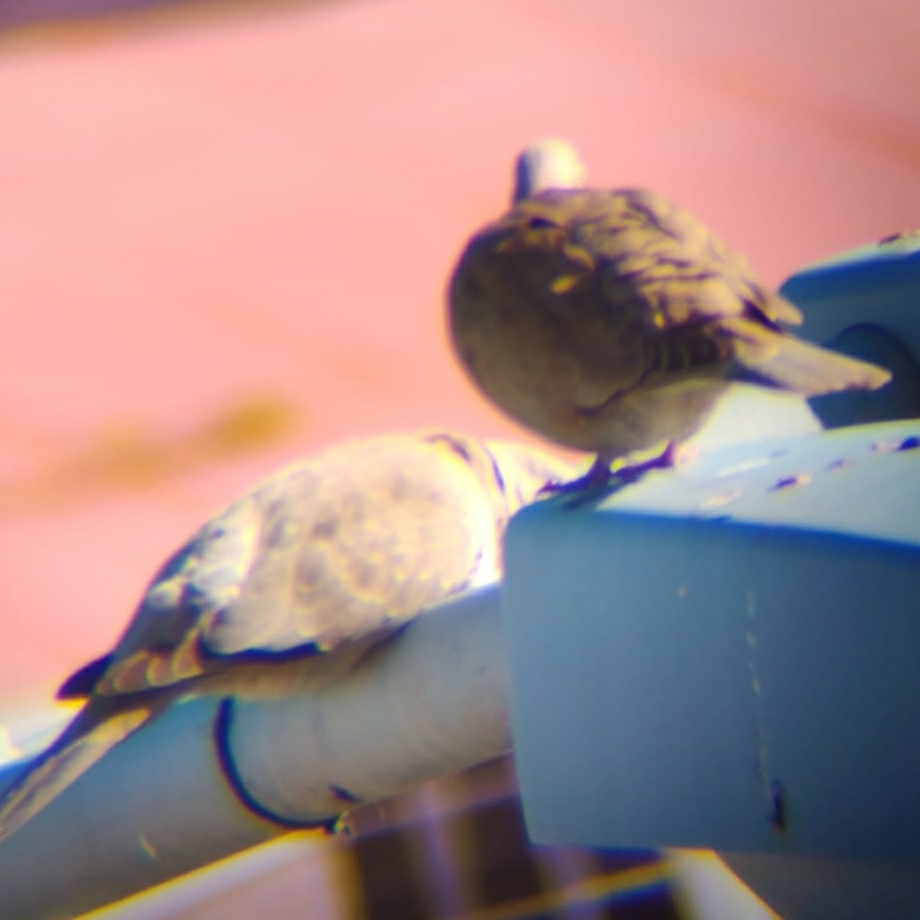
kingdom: Animalia
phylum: Chordata
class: Aves
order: Columbiformes
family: Columbidae
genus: Streptopelia
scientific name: Streptopelia decaocto
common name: Eurasian collared dove
